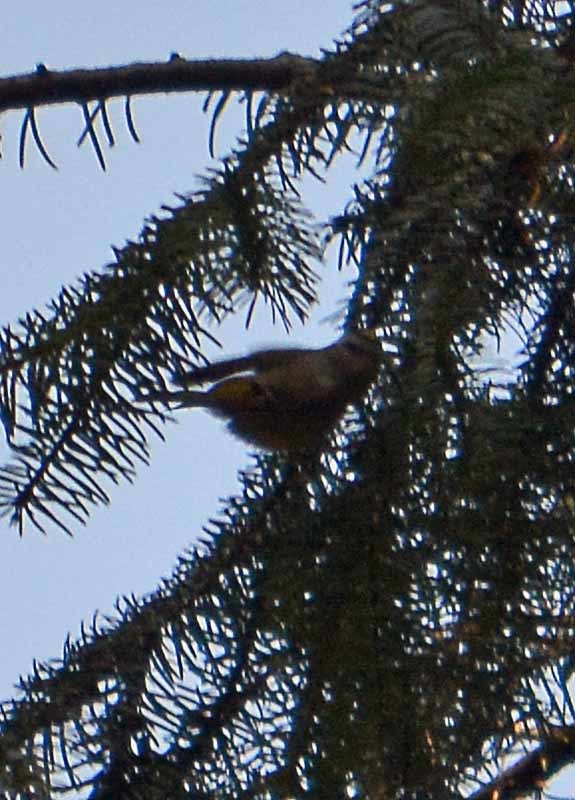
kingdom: Animalia
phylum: Chordata
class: Aves
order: Passeriformes
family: Regulidae
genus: Regulus
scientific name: Regulus satrapa
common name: Golden-crowned kinglet
